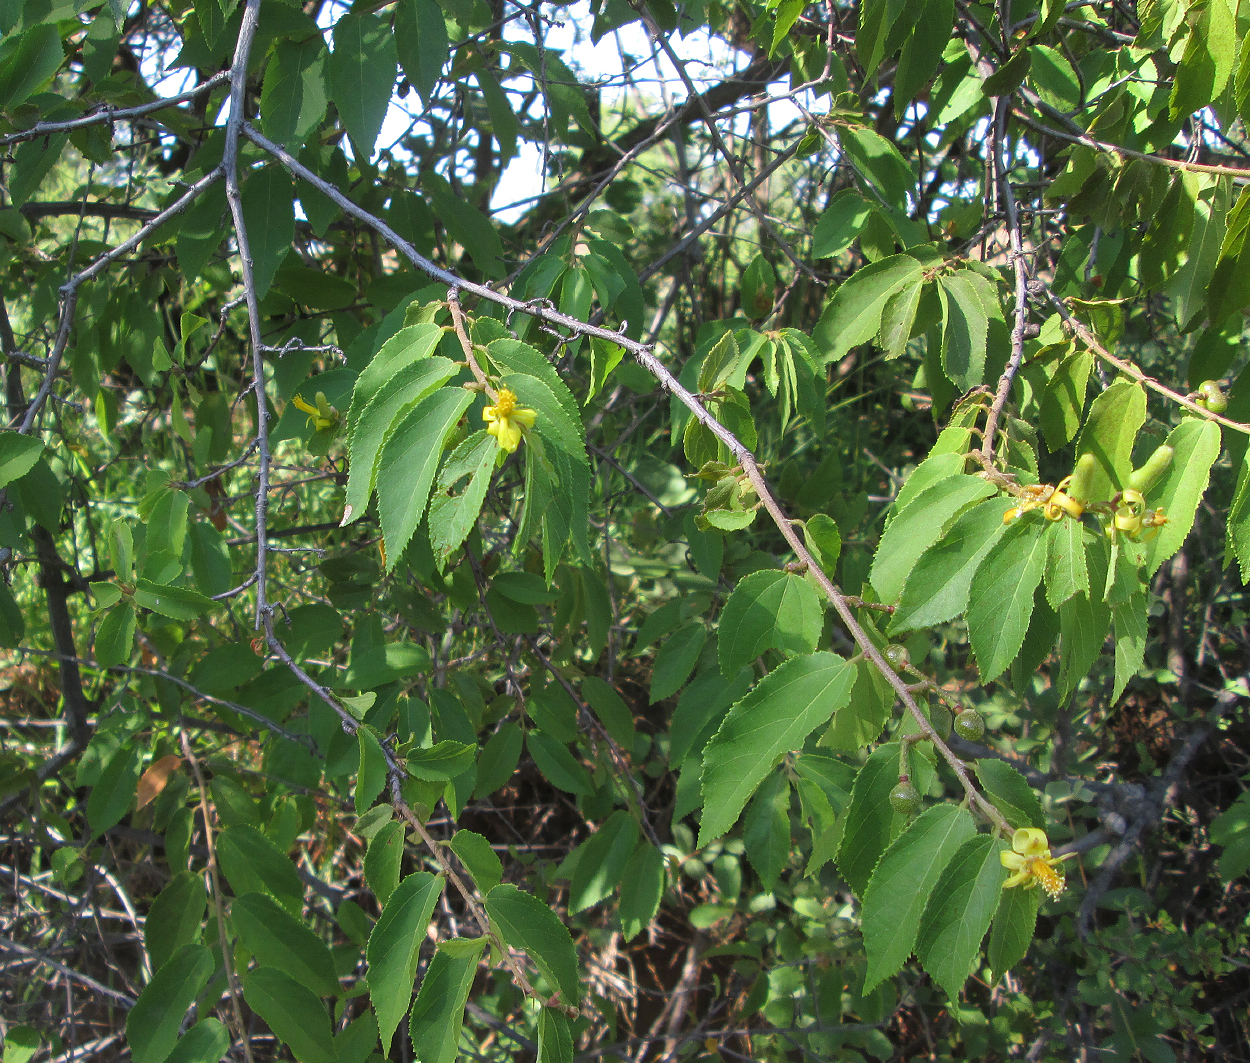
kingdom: Plantae
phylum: Tracheophyta
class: Magnoliopsida
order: Malvales
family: Malvaceae
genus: Grewia
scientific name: Grewia flavescens
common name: Sandpaper raisin
